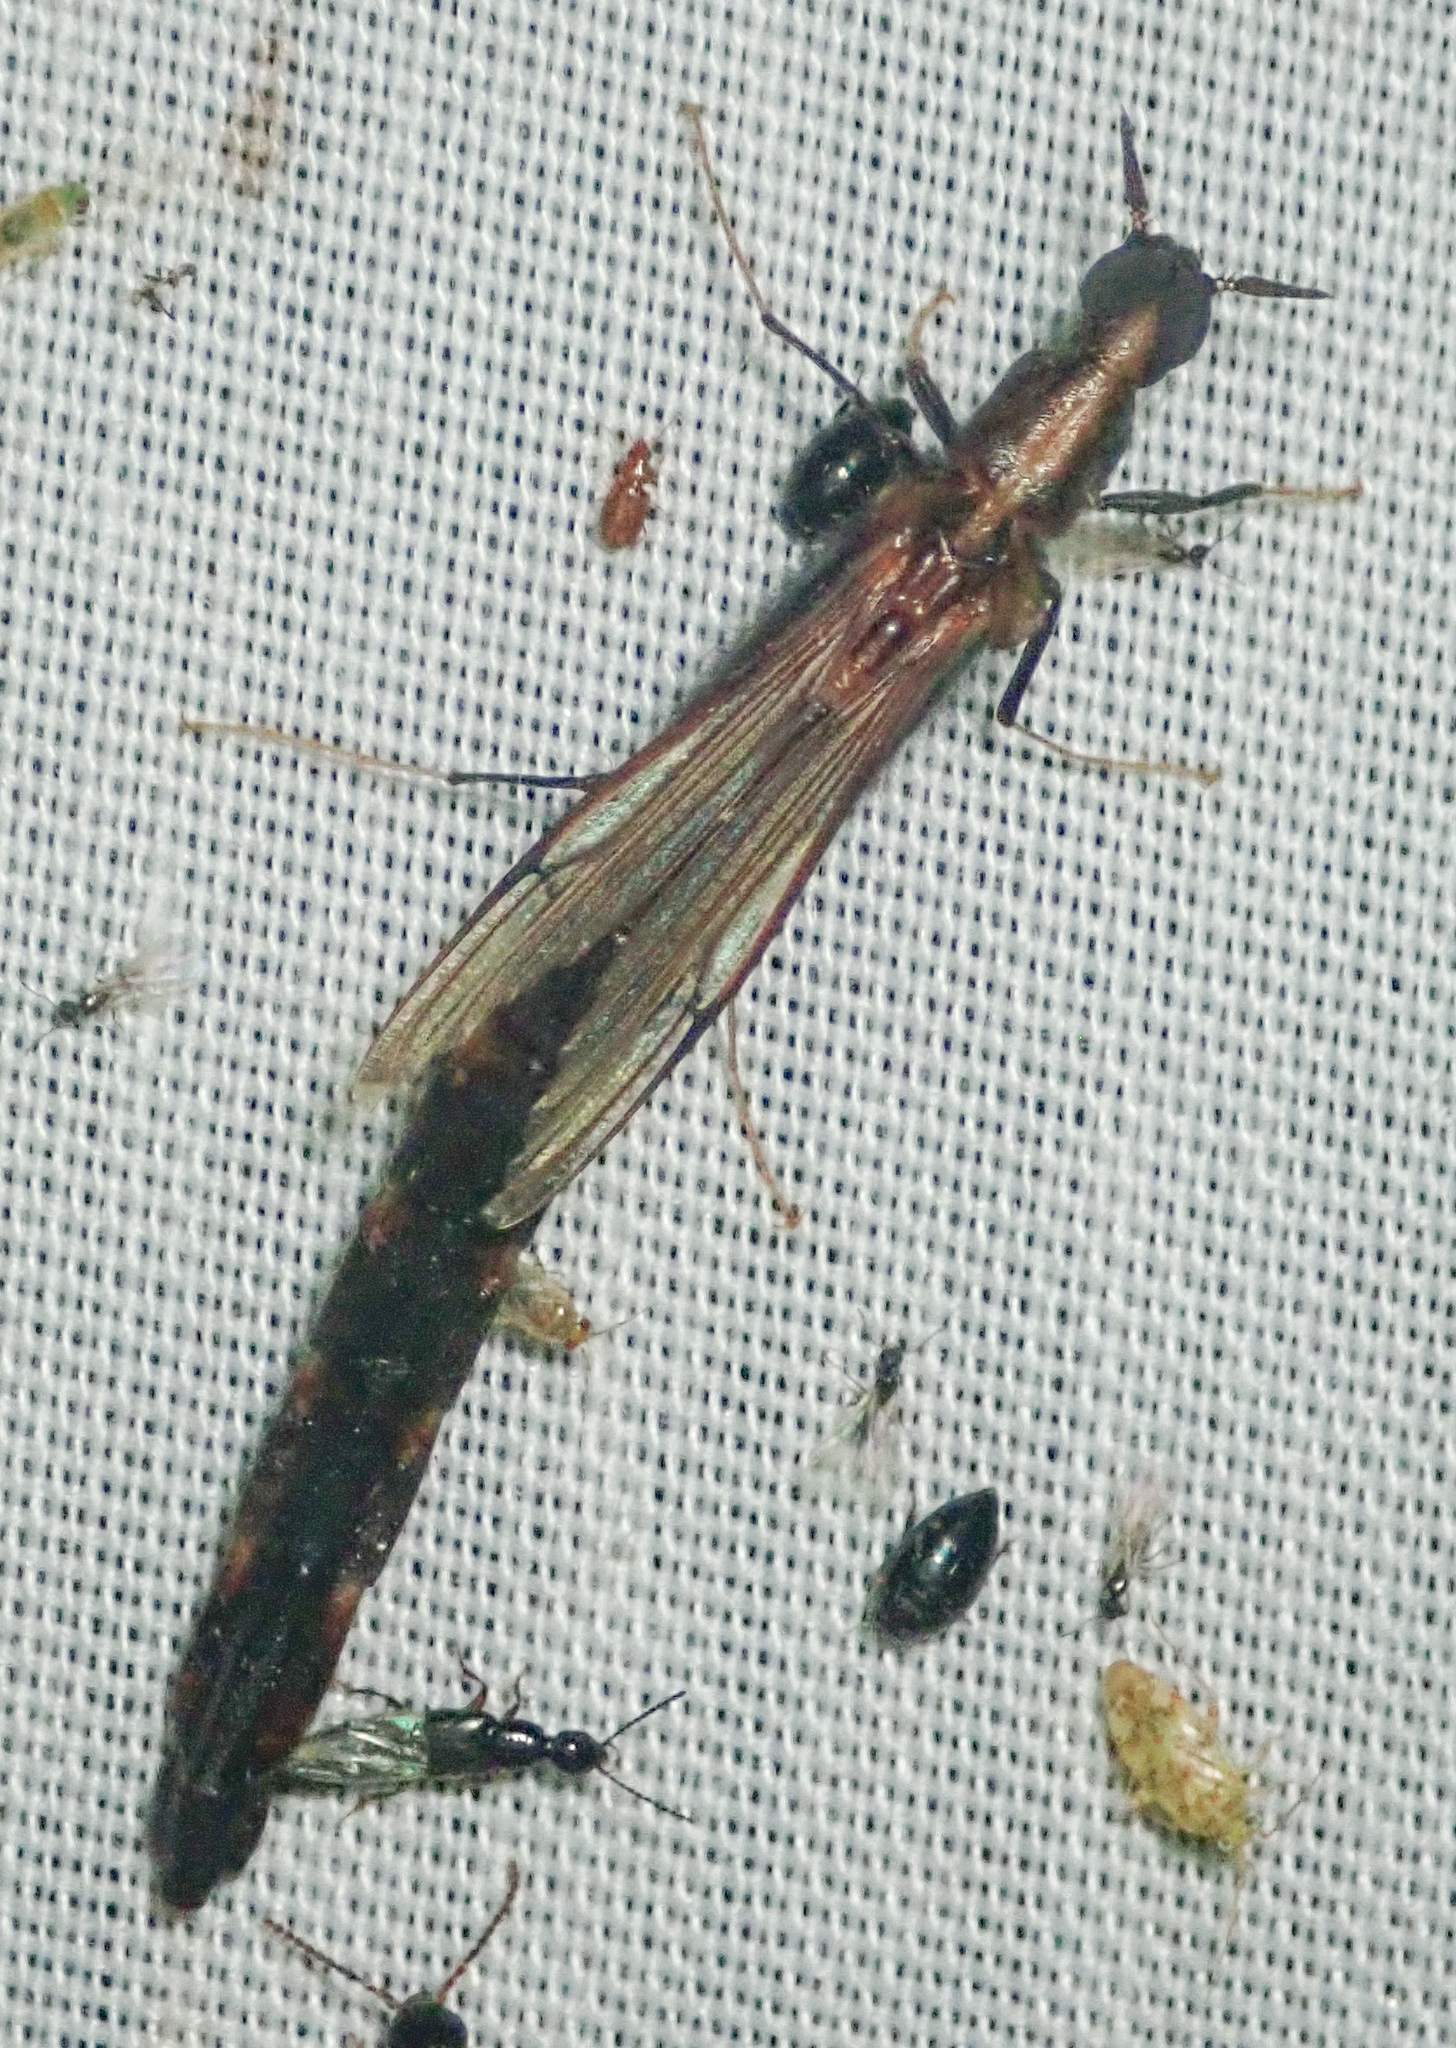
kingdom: Animalia
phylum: Arthropoda
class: Insecta
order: Coleoptera
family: Lymexylidae
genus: Atractocerus
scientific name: Atractocerus brevicornis
